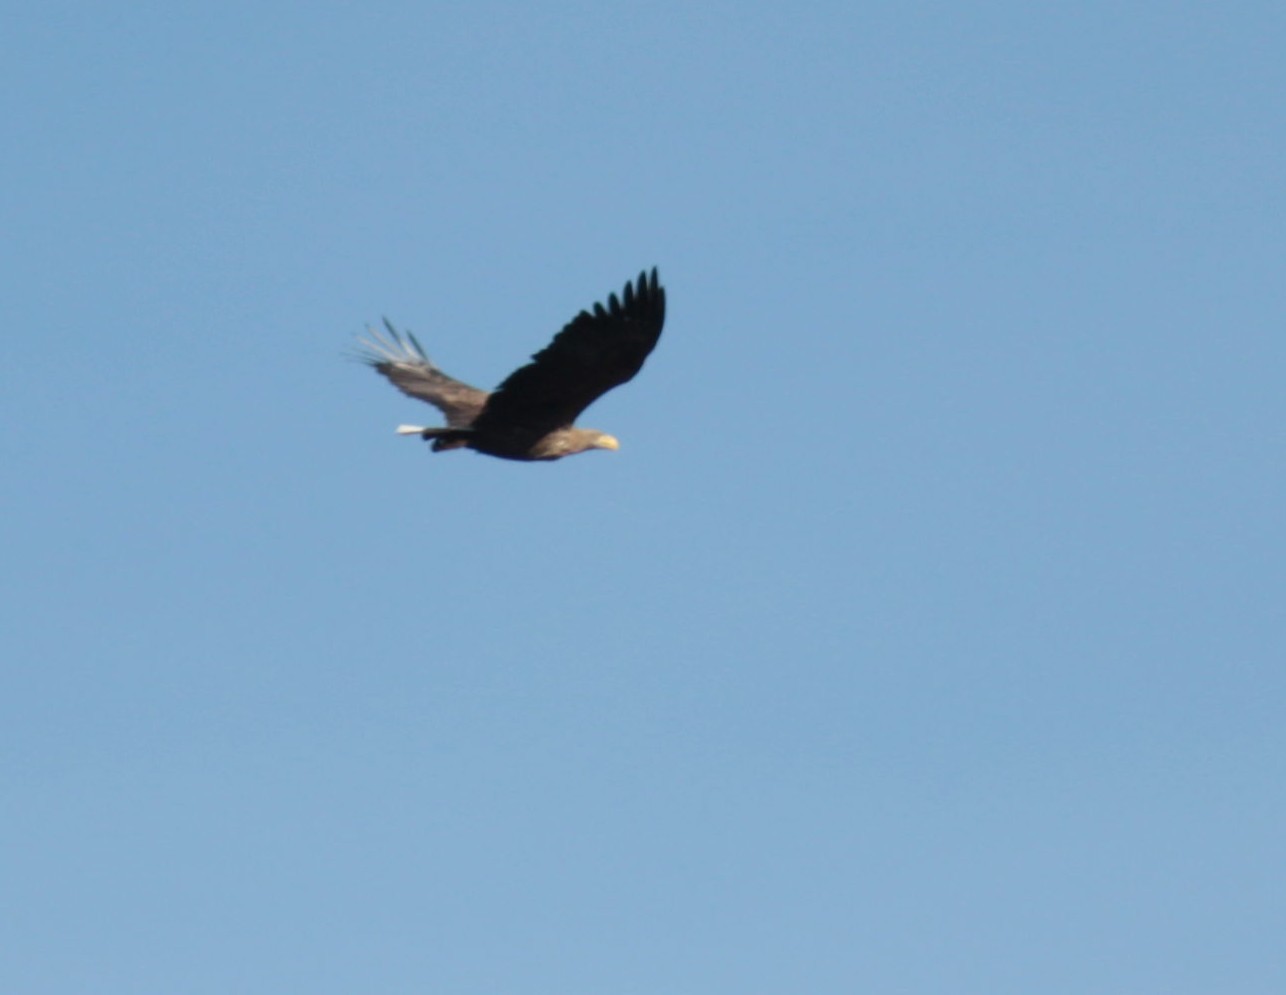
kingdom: Animalia
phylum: Chordata
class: Aves
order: Accipitriformes
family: Accipitridae
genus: Haliaeetus
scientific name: Haliaeetus albicilla
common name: White-tailed eagle
